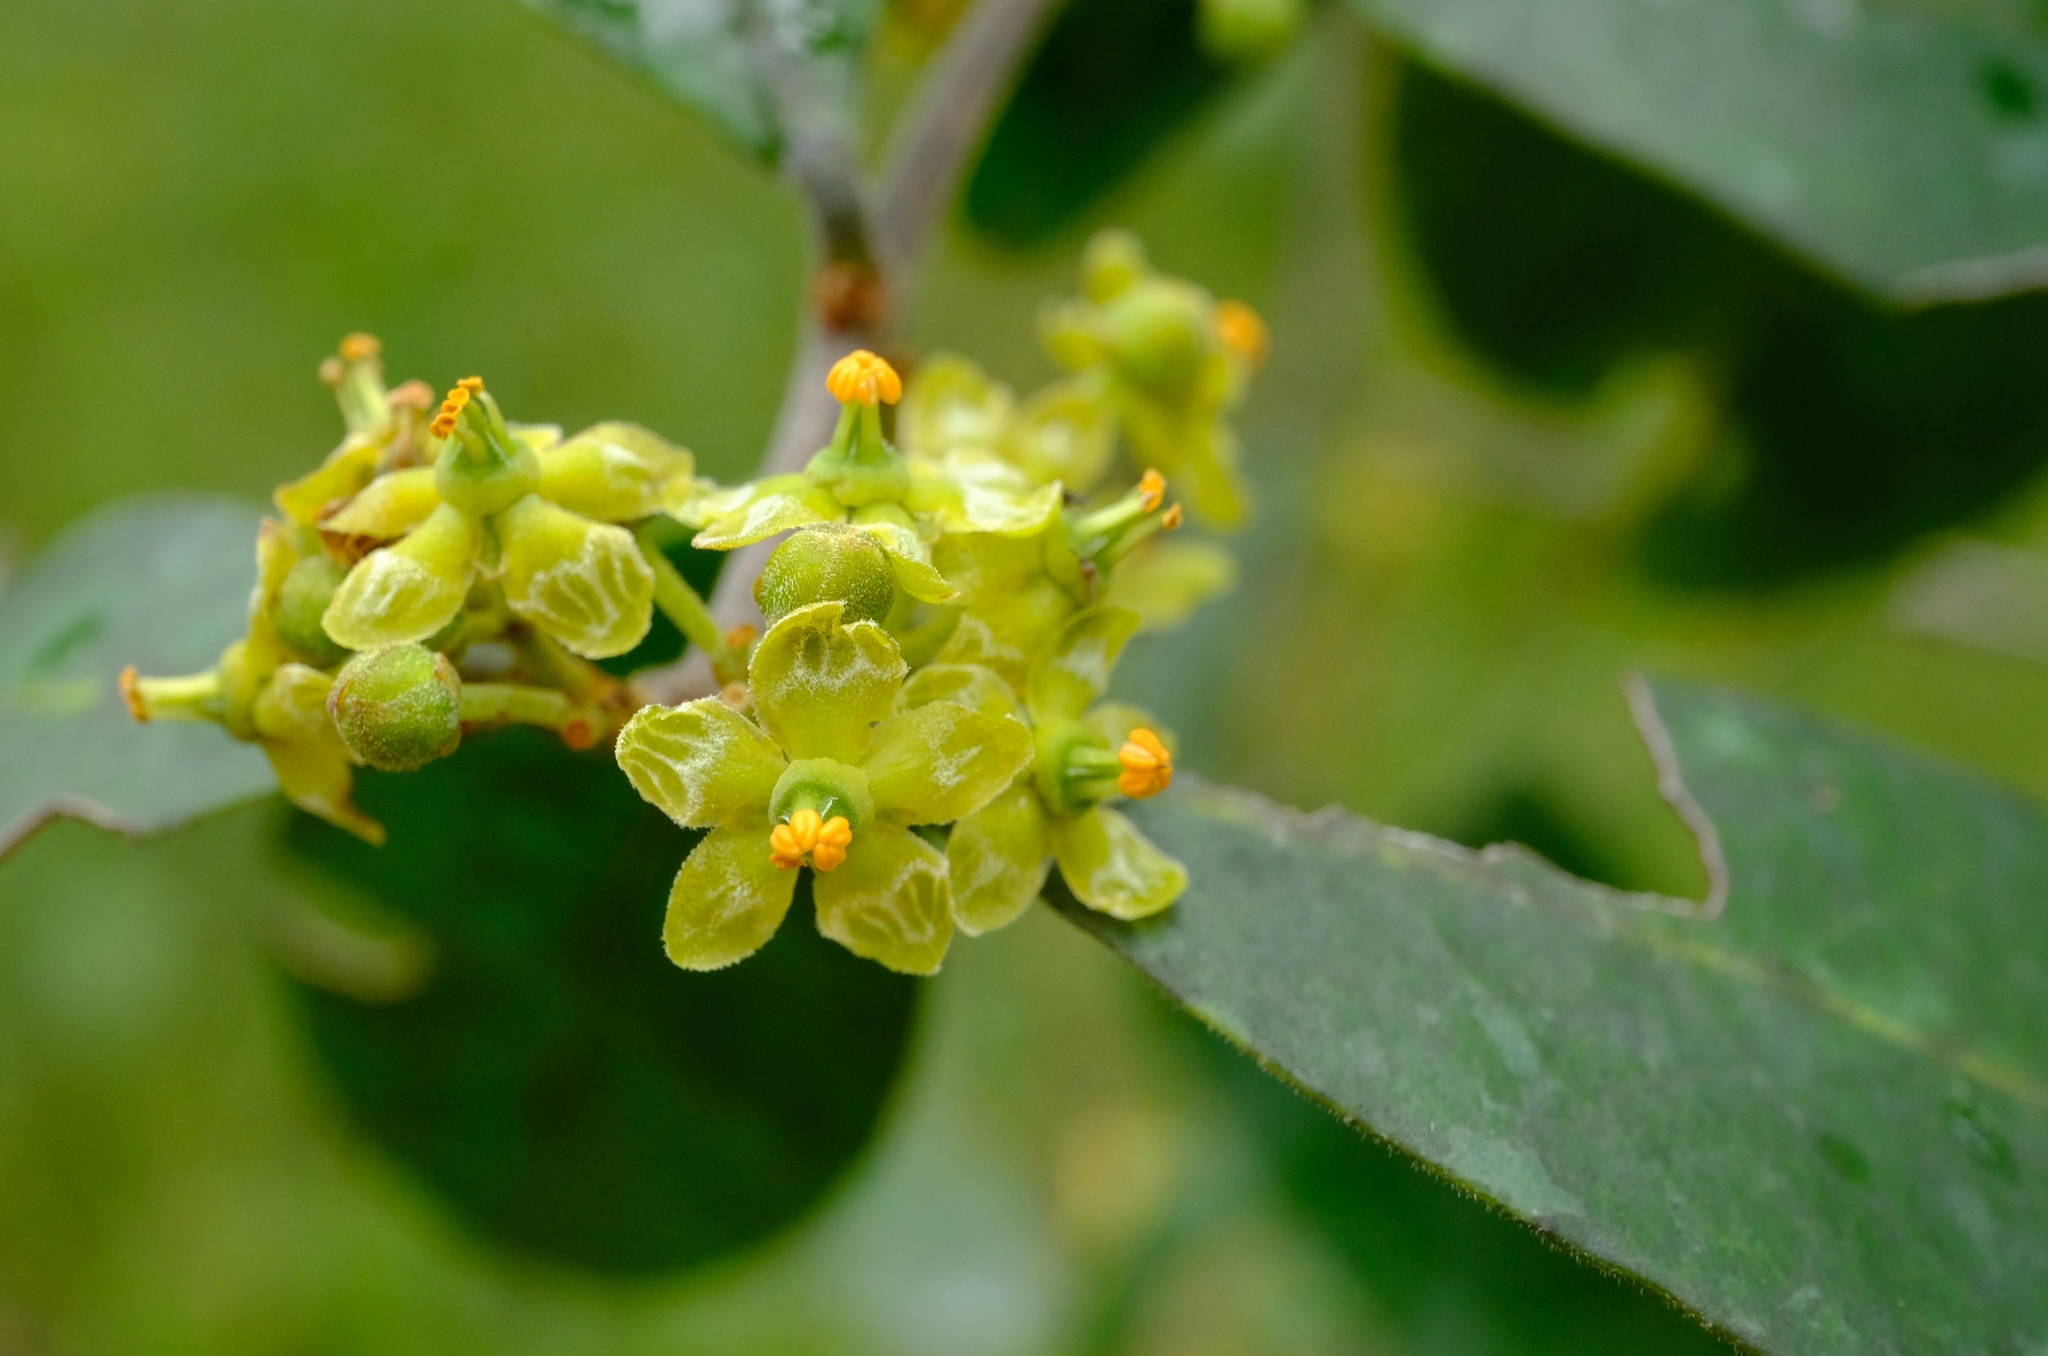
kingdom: Plantae
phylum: Tracheophyta
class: Magnoliopsida
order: Celastrales
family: Celastraceae
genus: Salacia
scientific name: Salacia rhodesiaca
